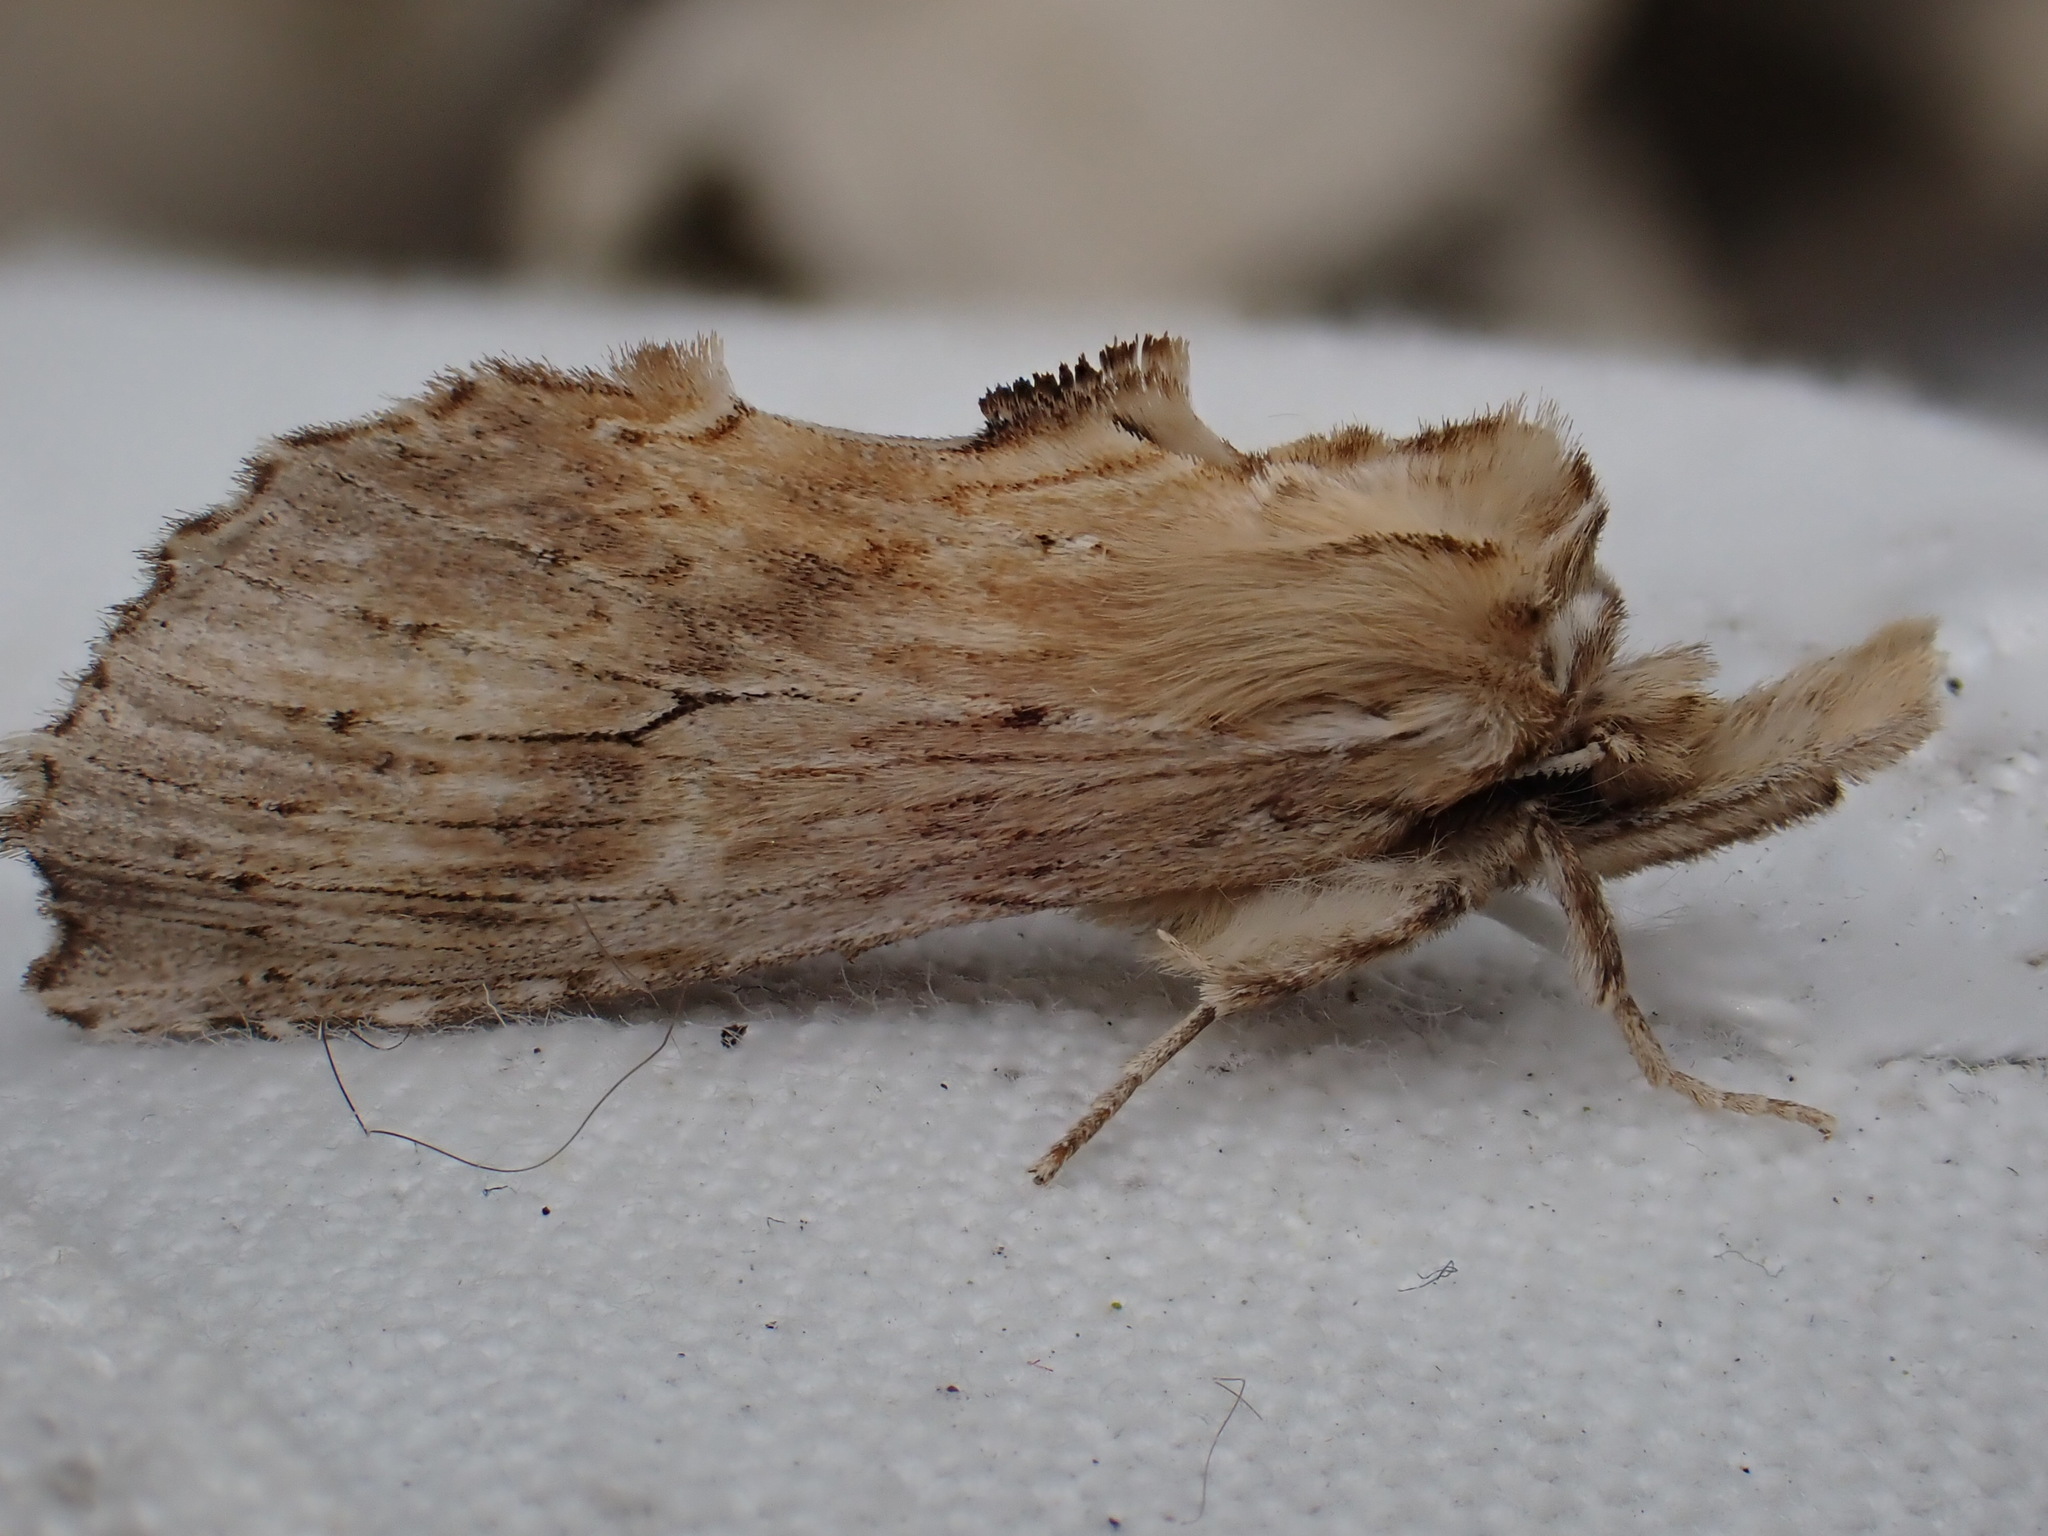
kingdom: Animalia
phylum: Arthropoda
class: Insecta
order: Lepidoptera
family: Notodontidae
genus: Pterostoma
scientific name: Pterostoma palpina
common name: Pale prominent
